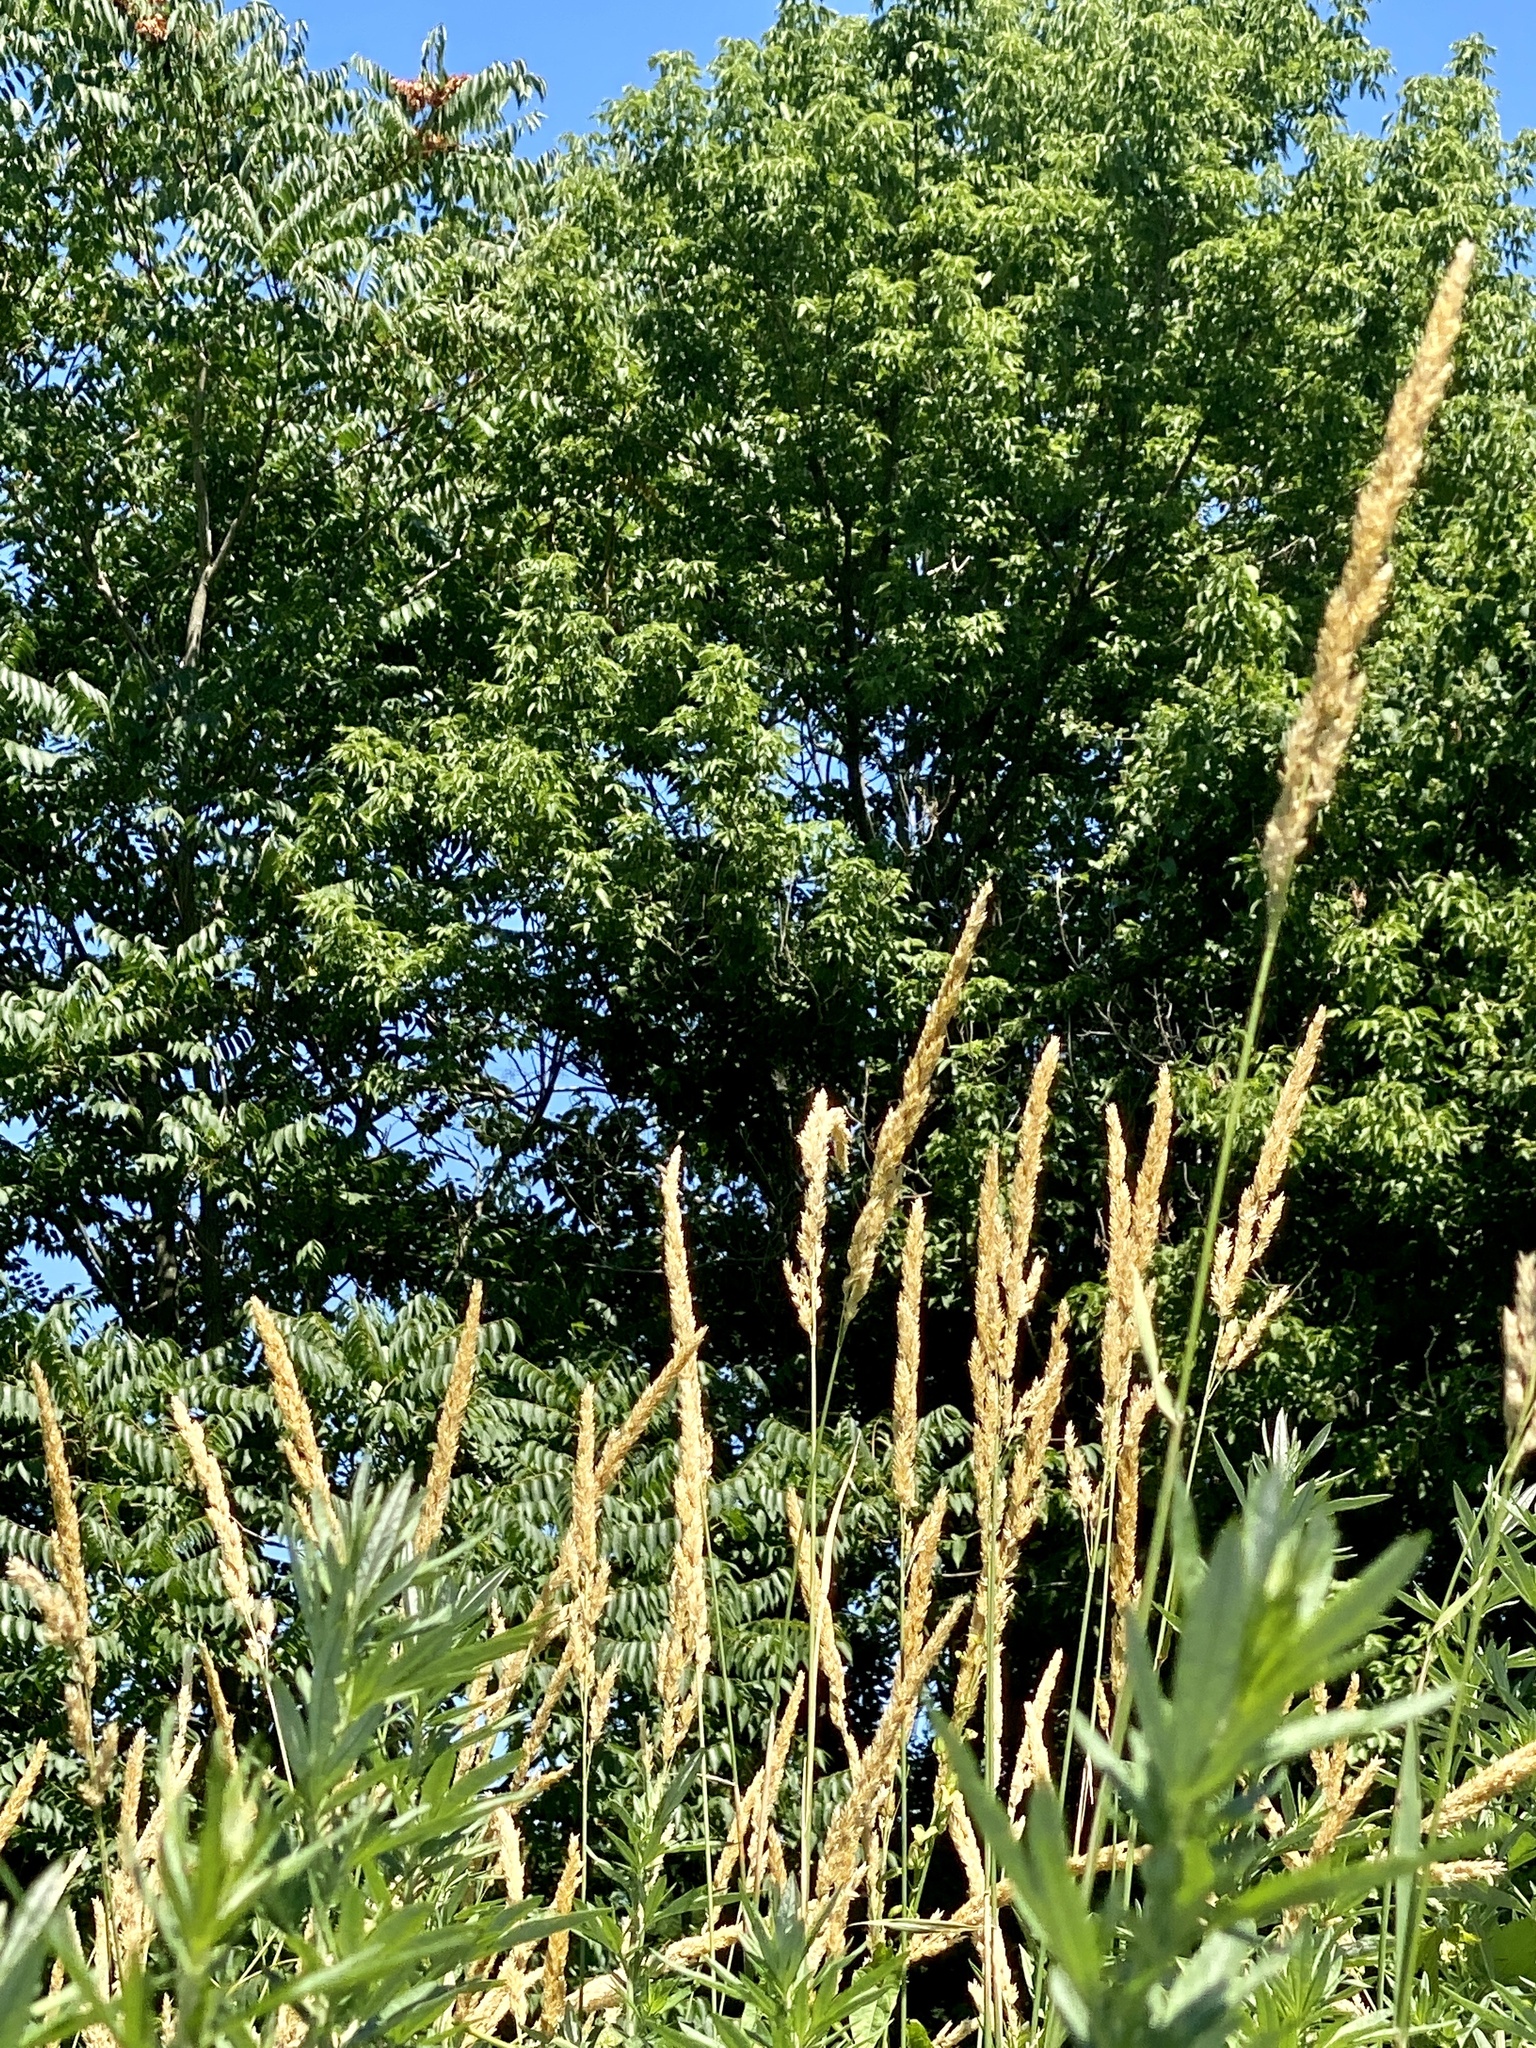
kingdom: Plantae
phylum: Tracheophyta
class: Liliopsida
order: Poales
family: Poaceae
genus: Phalaris
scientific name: Phalaris arundinacea
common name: Reed canary-grass
